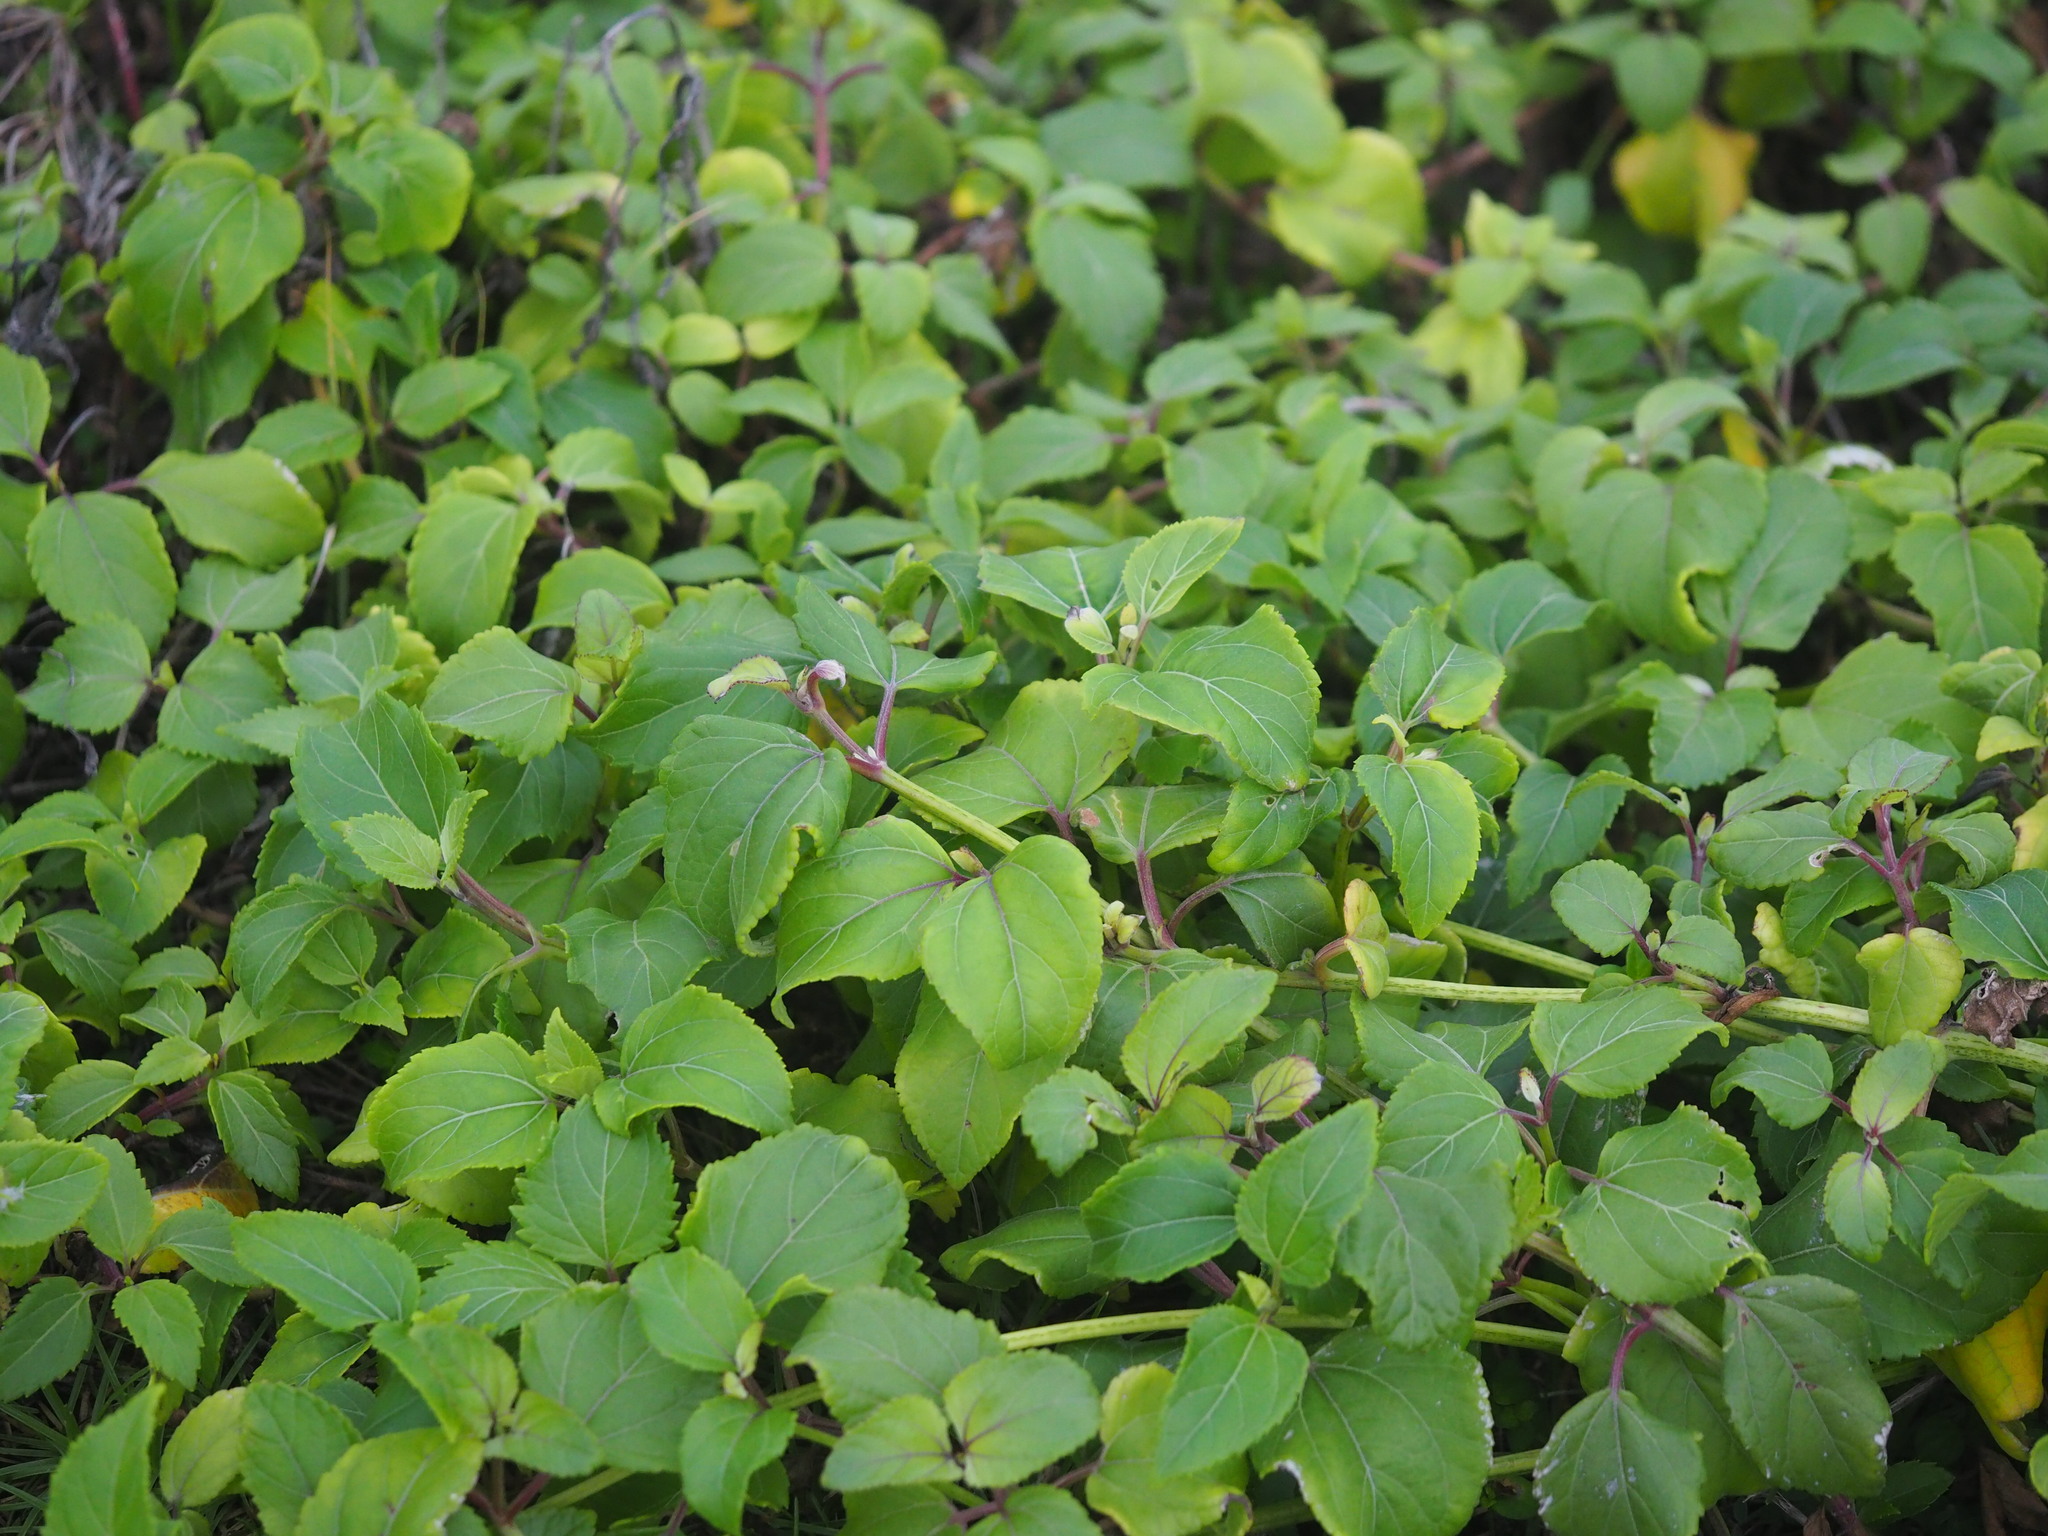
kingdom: Plantae
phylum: Tracheophyta
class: Magnoliopsida
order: Asterales
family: Asteraceae
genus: Wollastonia
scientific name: Wollastonia biflora
